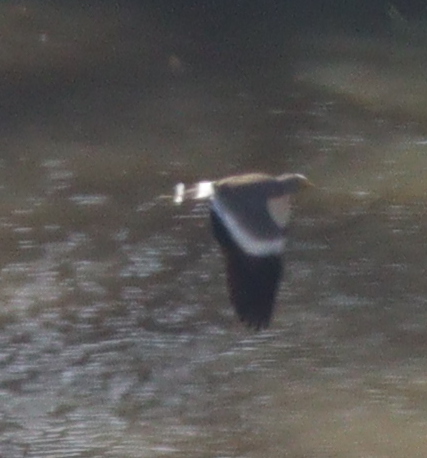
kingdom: Animalia
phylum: Chordata
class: Aves
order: Charadriiformes
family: Charadriidae
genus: Vanellus
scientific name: Vanellus senegallus
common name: African wattled lapwing
